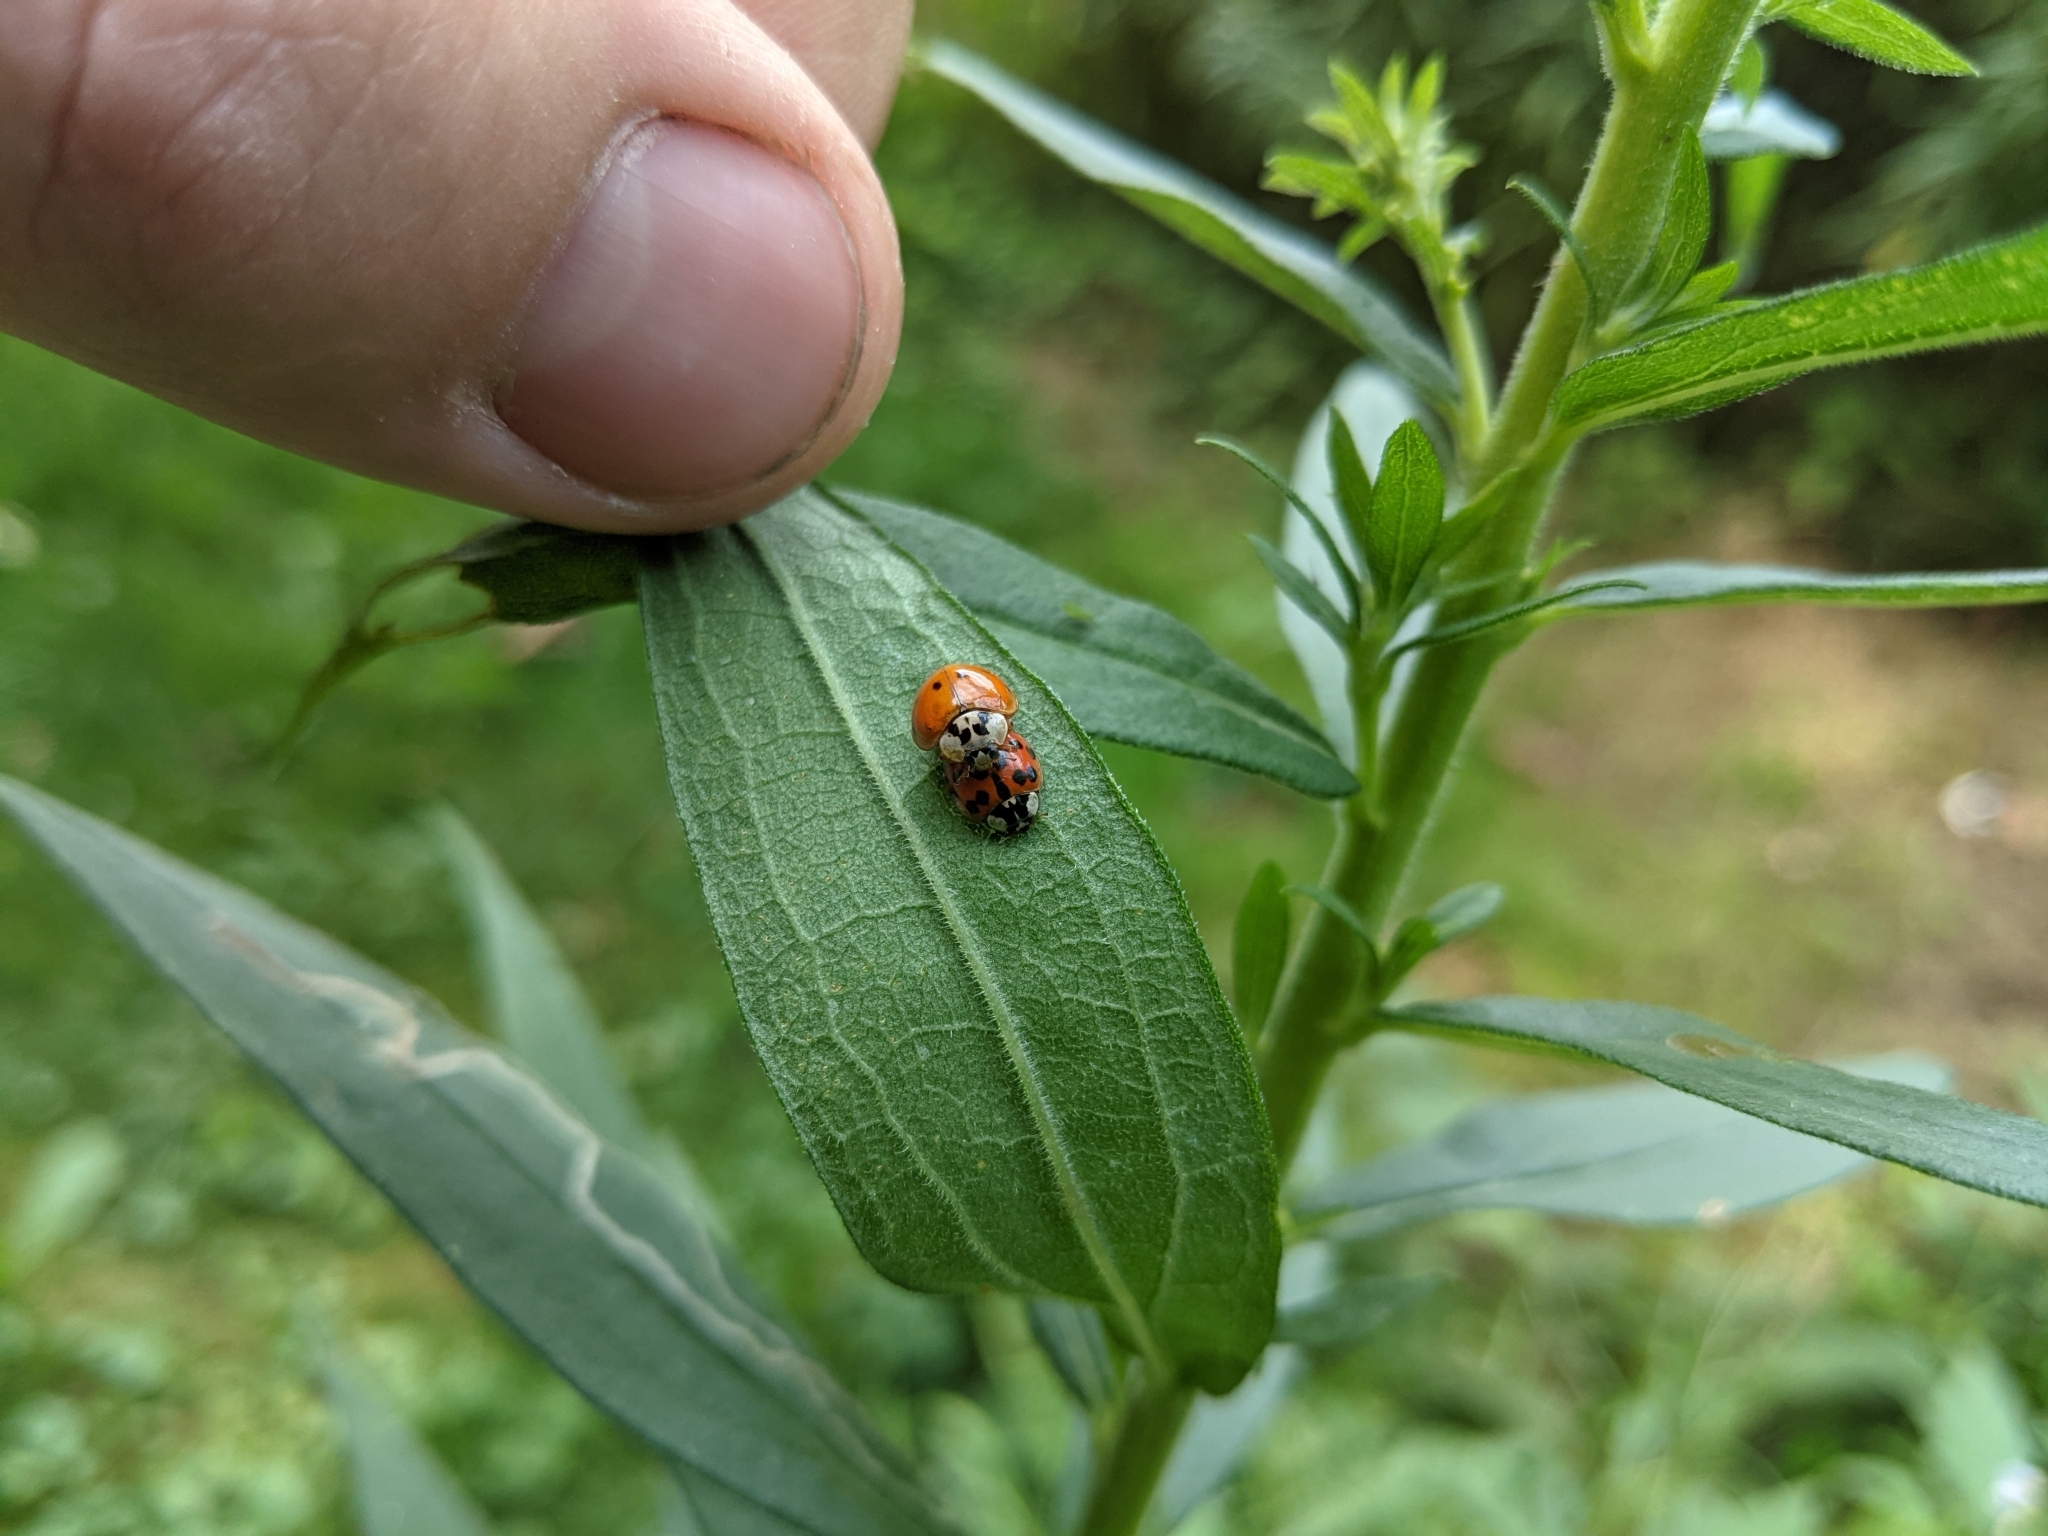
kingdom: Animalia
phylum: Arthropoda
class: Insecta
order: Coleoptera
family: Coccinellidae
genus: Harmonia
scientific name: Harmonia axyridis
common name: Harlequin ladybird
